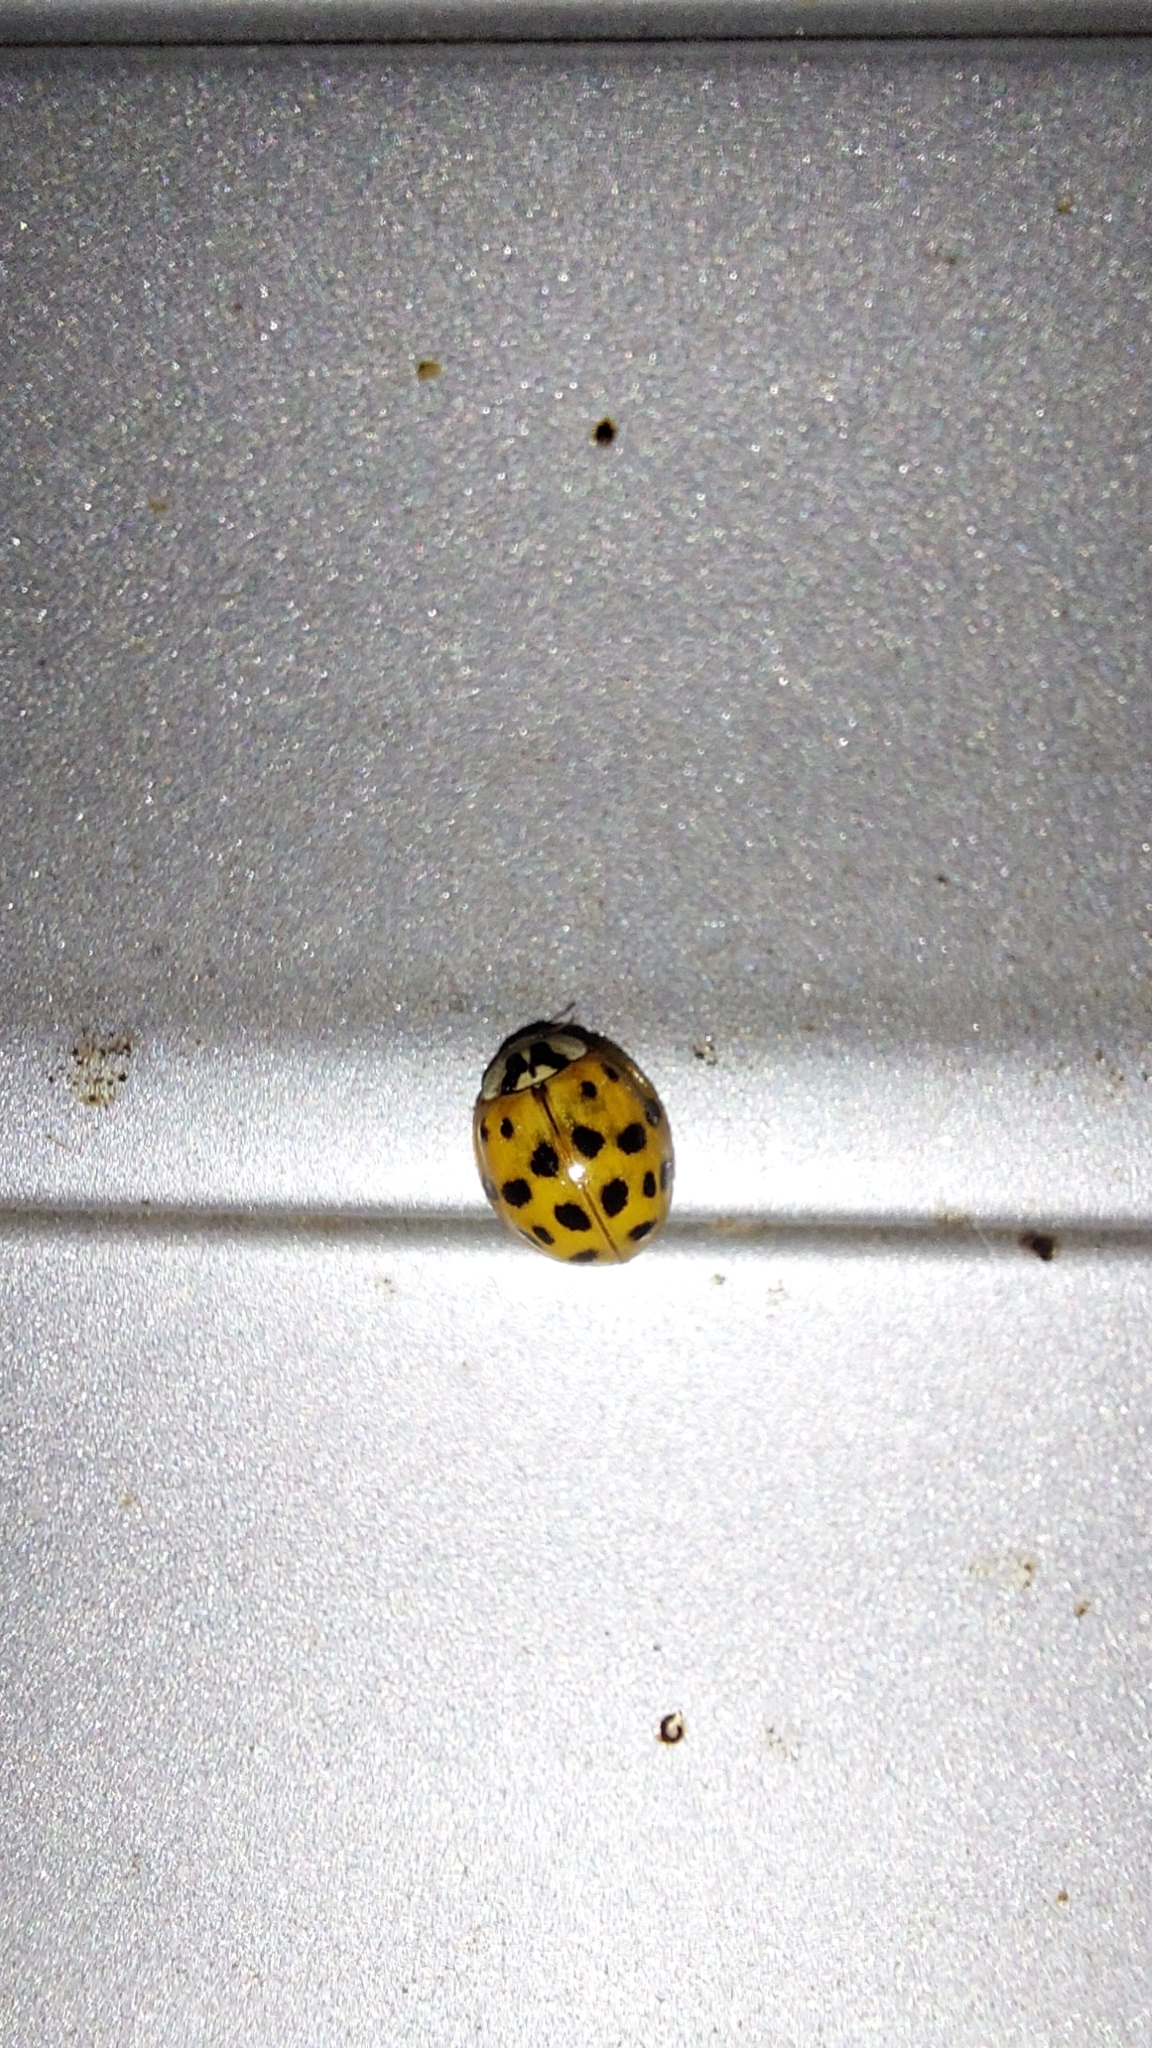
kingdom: Animalia
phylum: Arthropoda
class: Insecta
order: Coleoptera
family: Coccinellidae
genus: Harmonia
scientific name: Harmonia axyridis
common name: Harlequin ladybird
